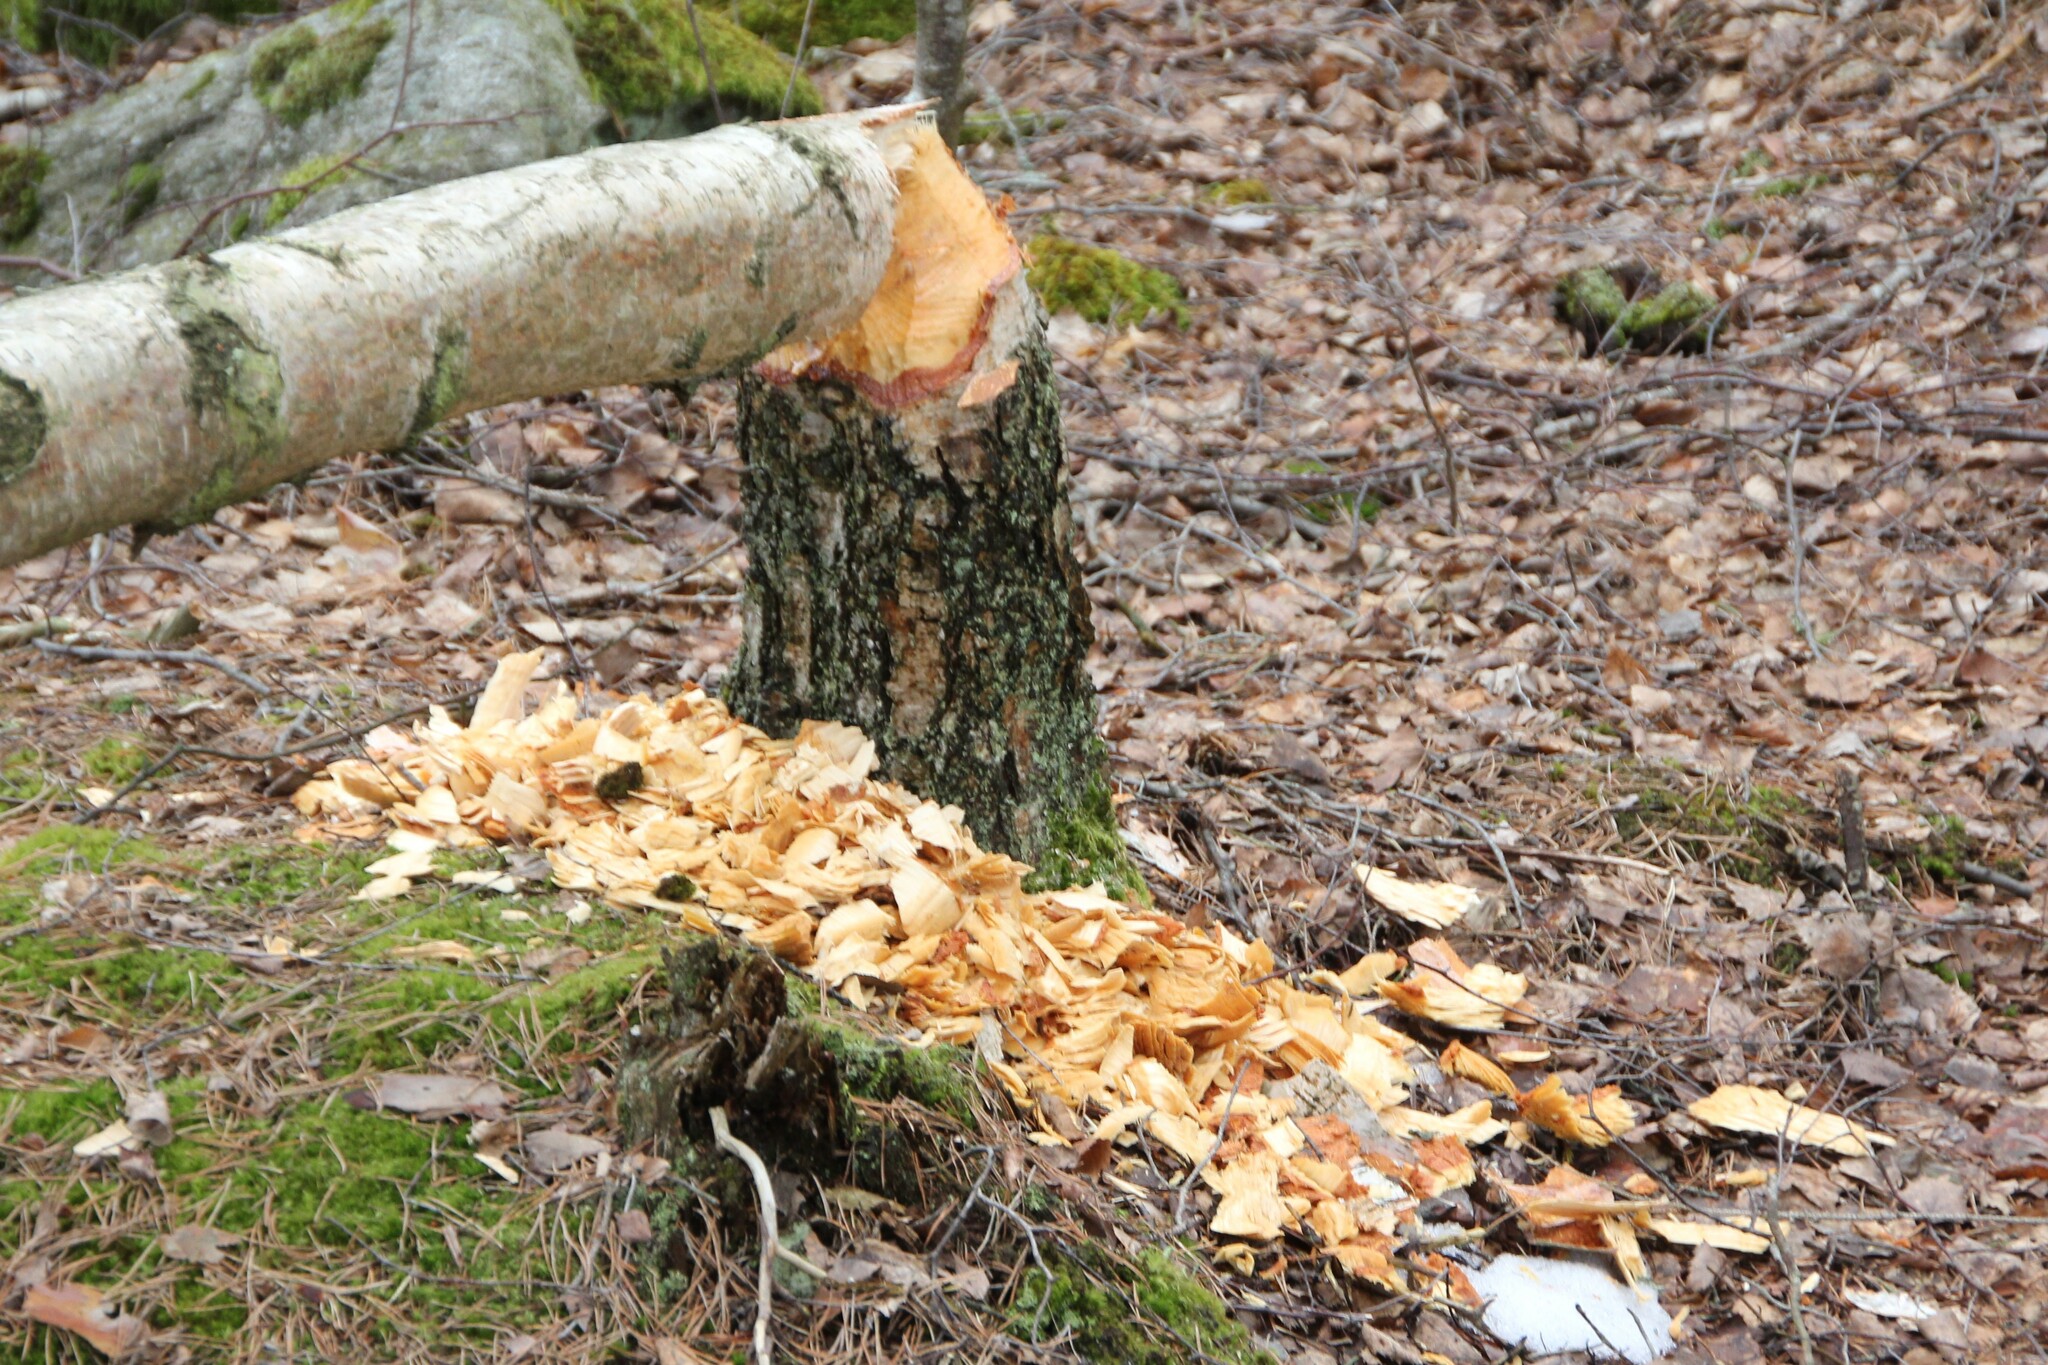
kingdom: Animalia
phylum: Chordata
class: Mammalia
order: Rodentia
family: Castoridae
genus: Castor
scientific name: Castor fiber
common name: Eurasian beaver
